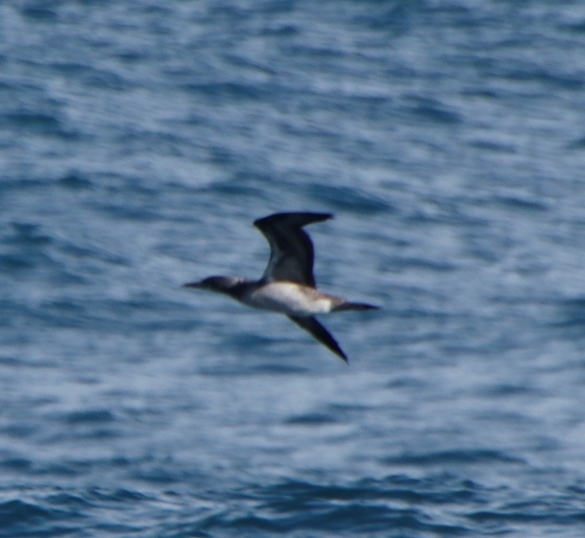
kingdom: Animalia
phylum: Chordata
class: Aves
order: Suliformes
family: Sulidae
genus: Morus
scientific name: Morus capensis
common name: Cape gannet
